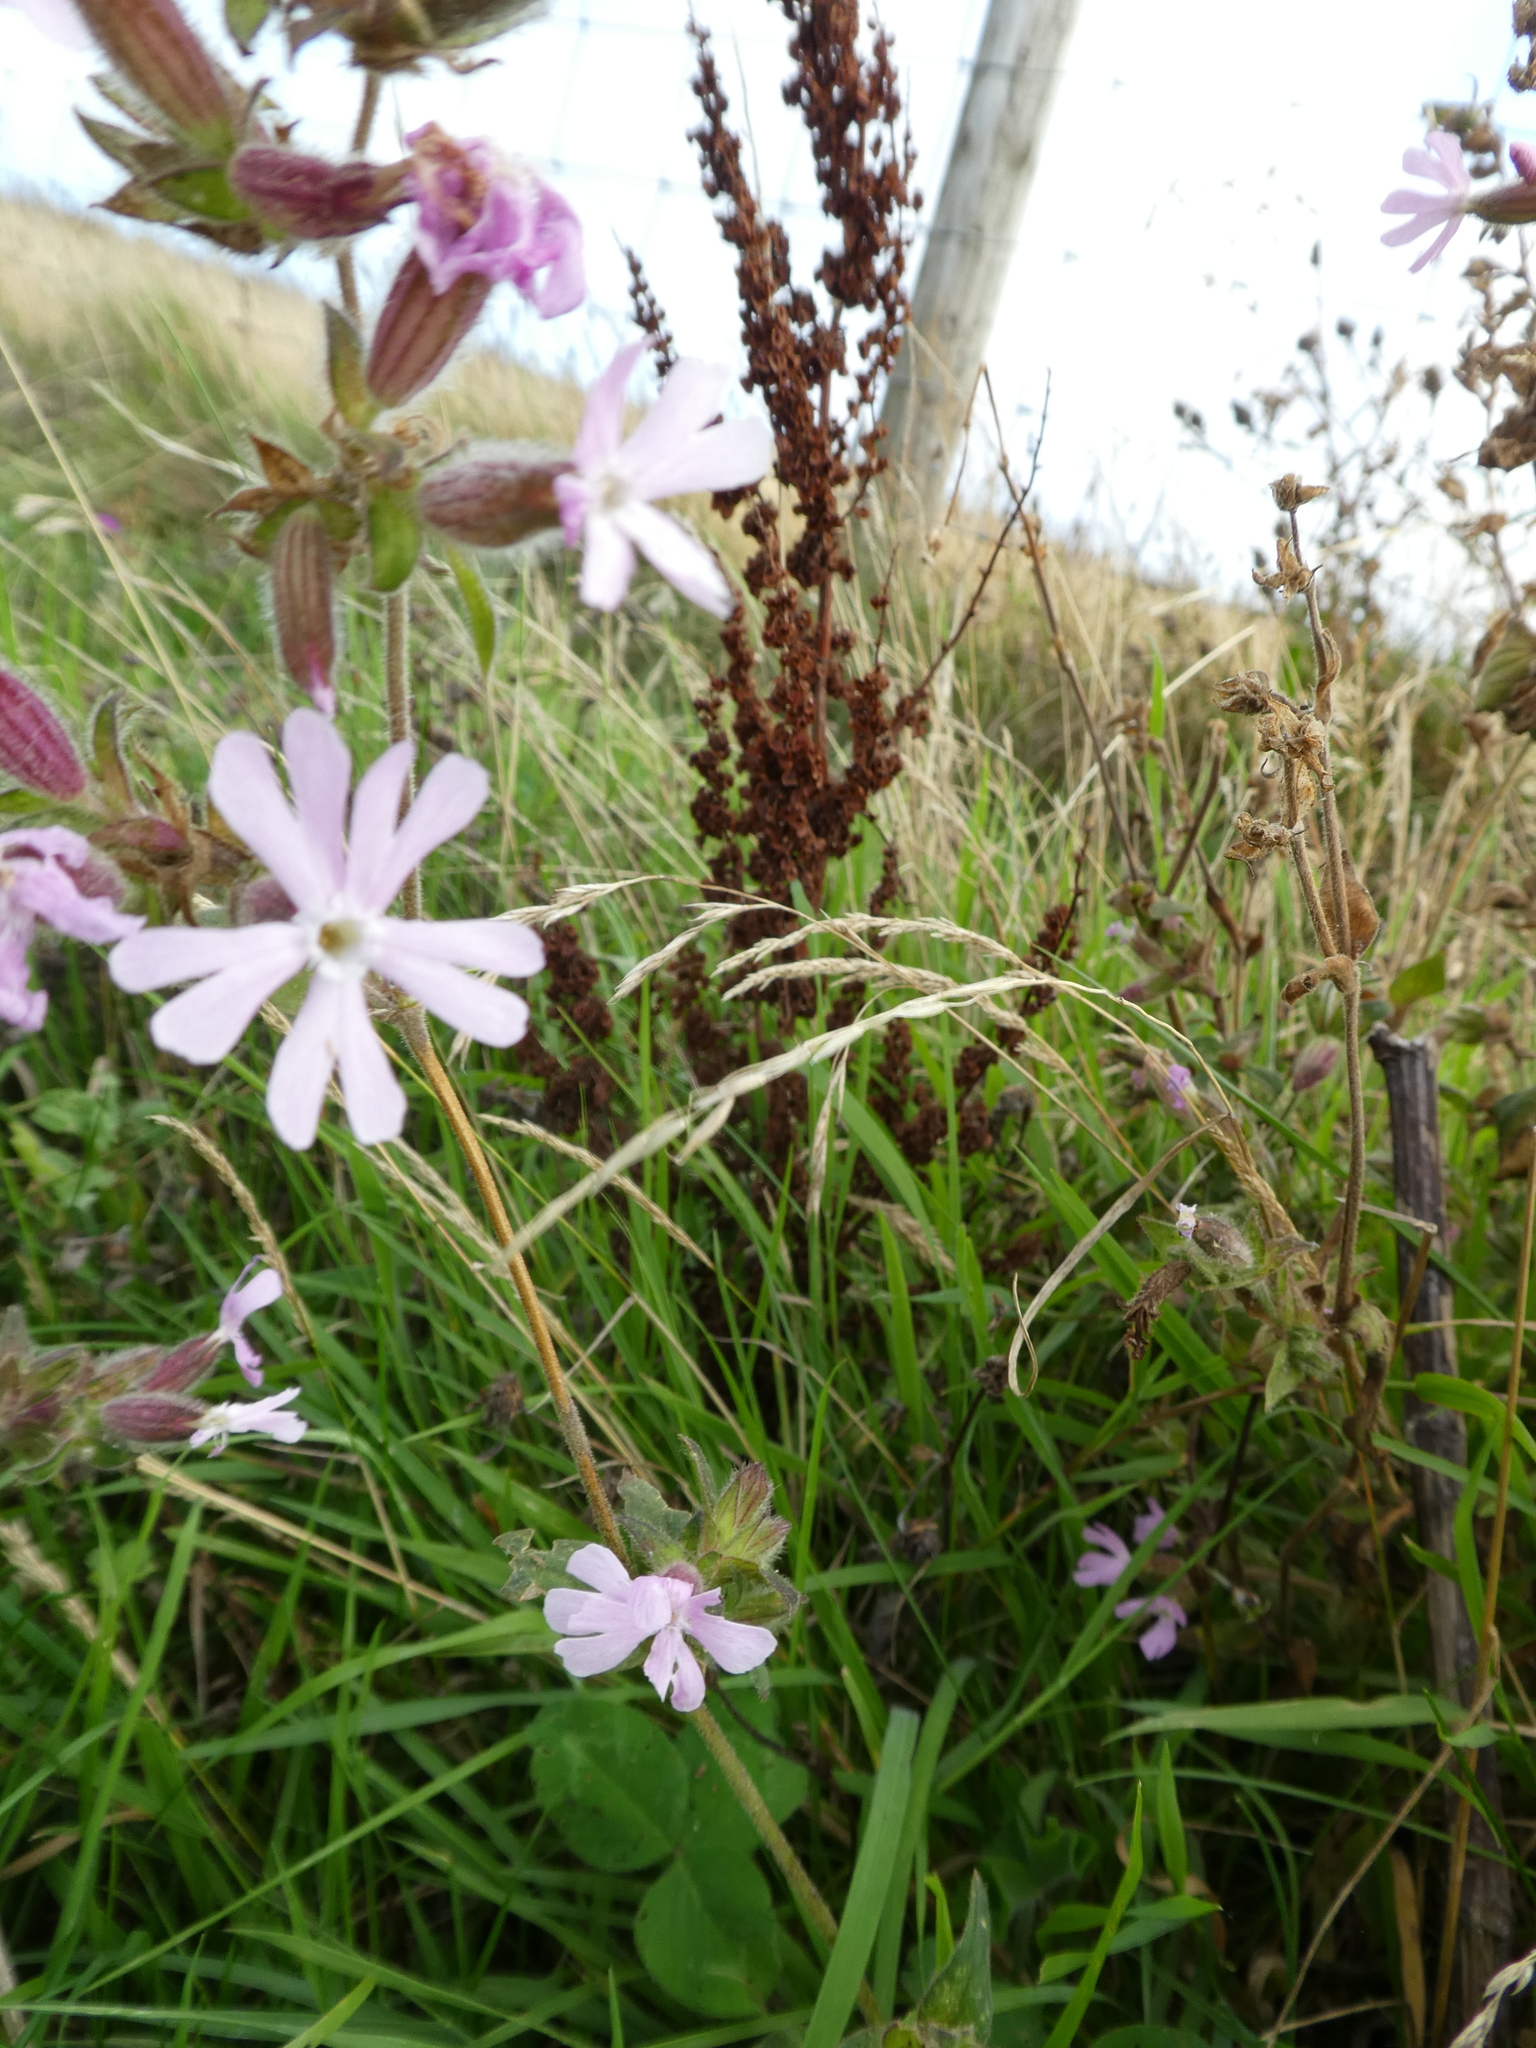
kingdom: Plantae
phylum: Tracheophyta
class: Magnoliopsida
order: Caryophyllales
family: Caryophyllaceae
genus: Silene
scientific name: Silene hampeana
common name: Catchfly
